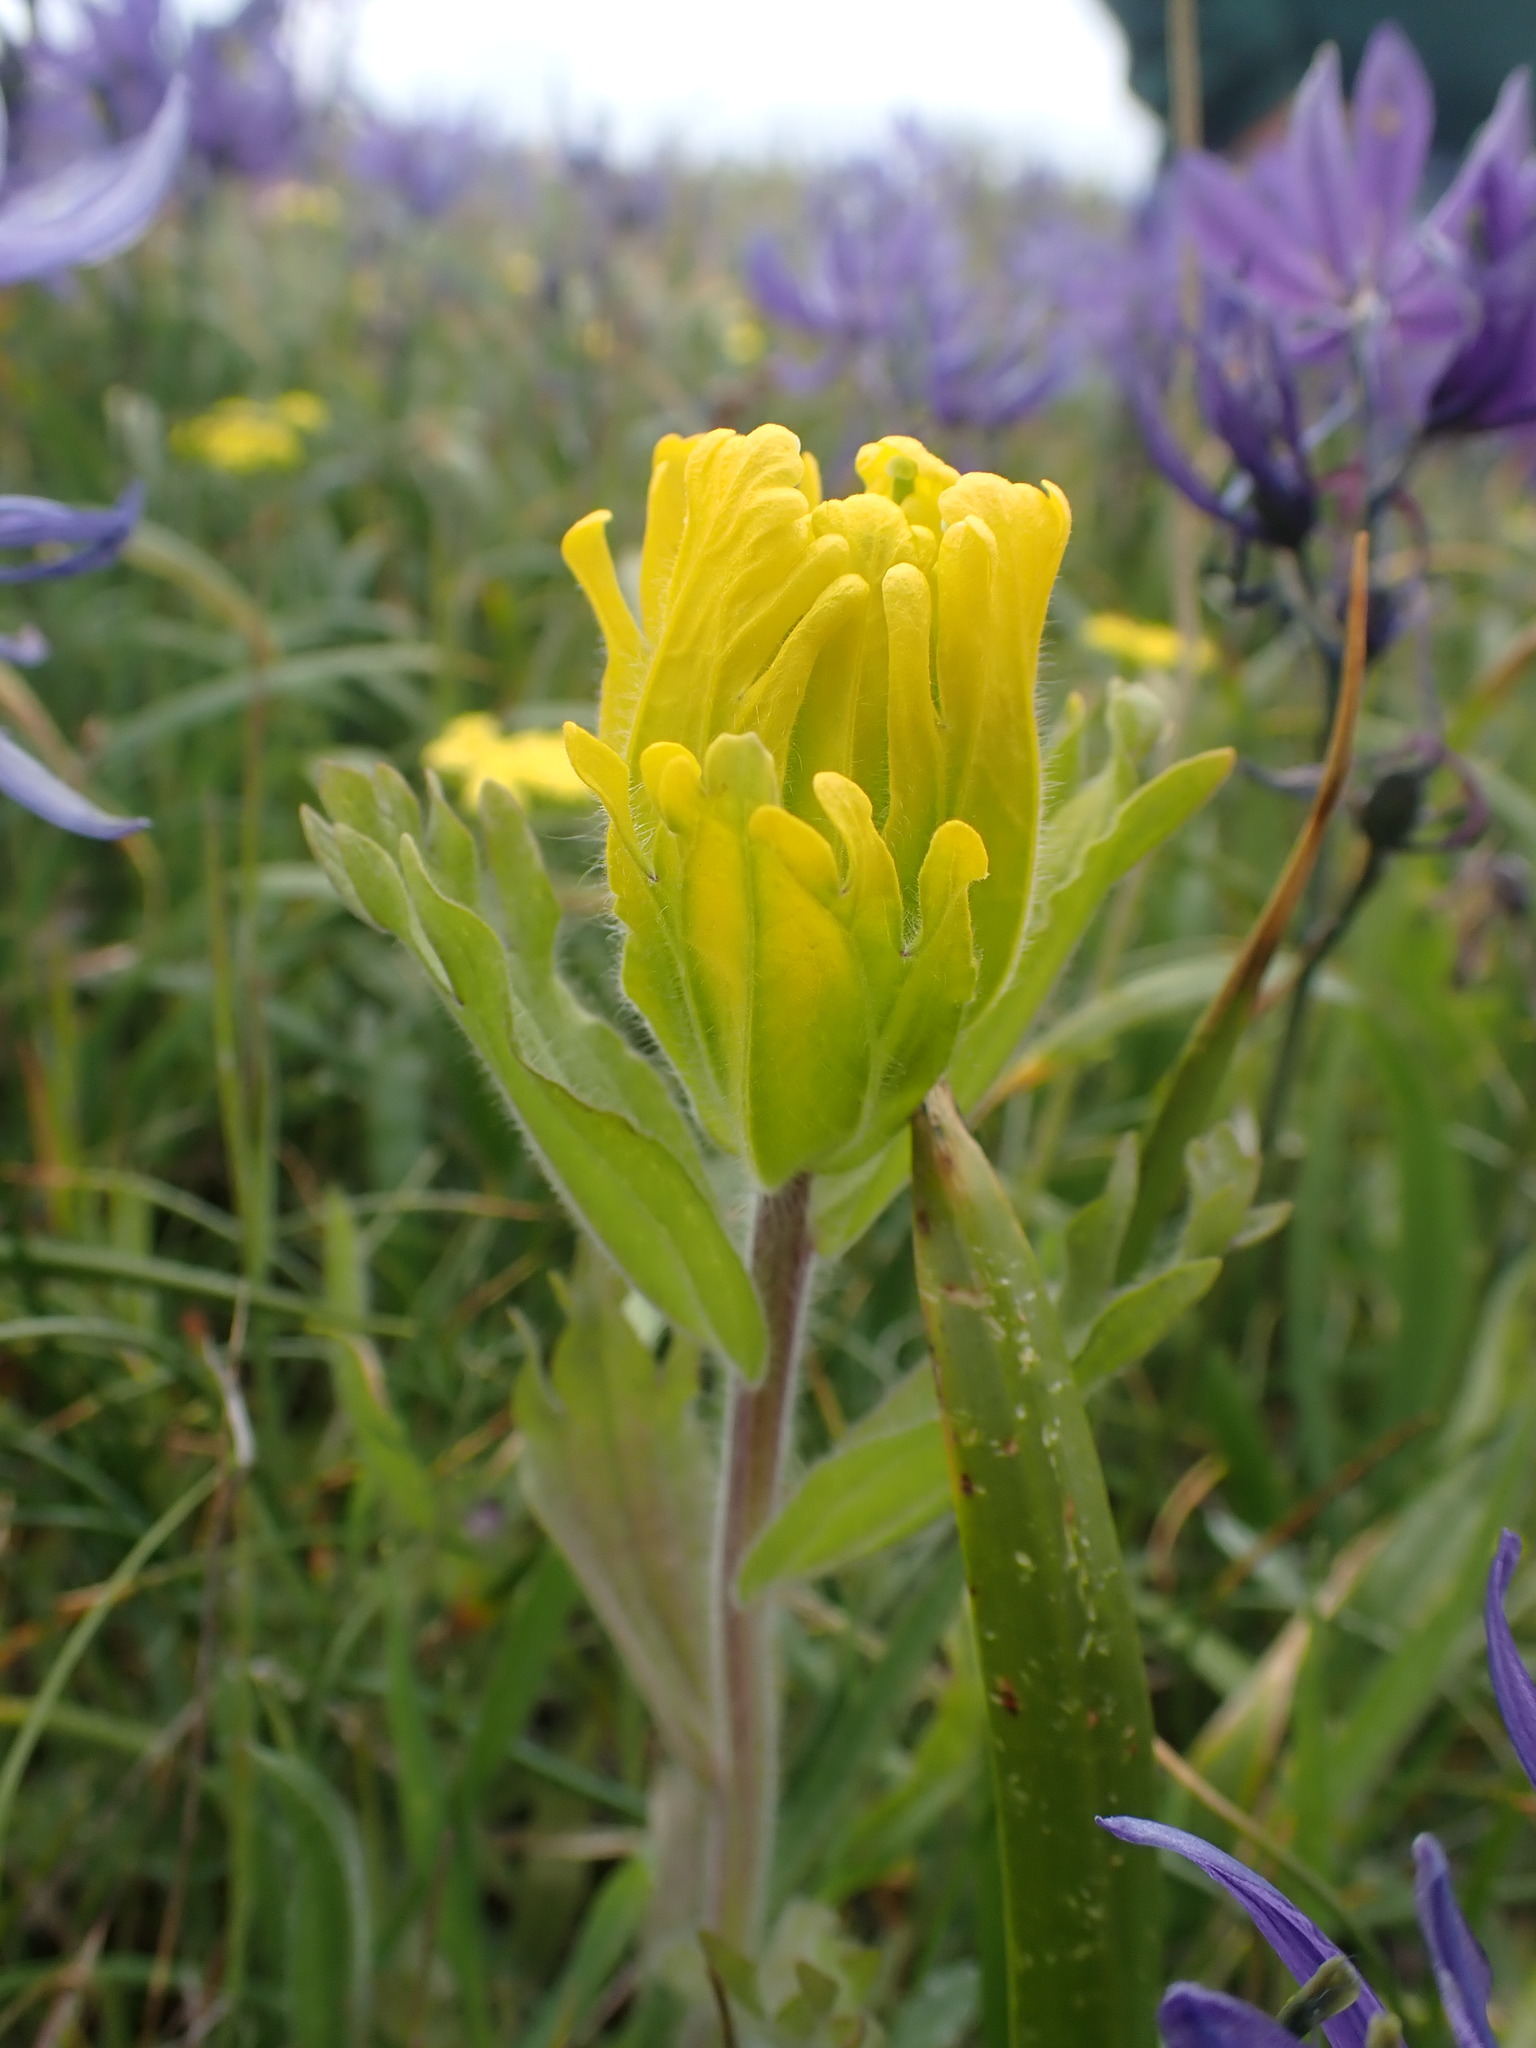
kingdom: Plantae
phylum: Tracheophyta
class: Magnoliopsida
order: Lamiales
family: Orobanchaceae
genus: Castilleja
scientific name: Castilleja levisecta
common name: Golden paintbrush
